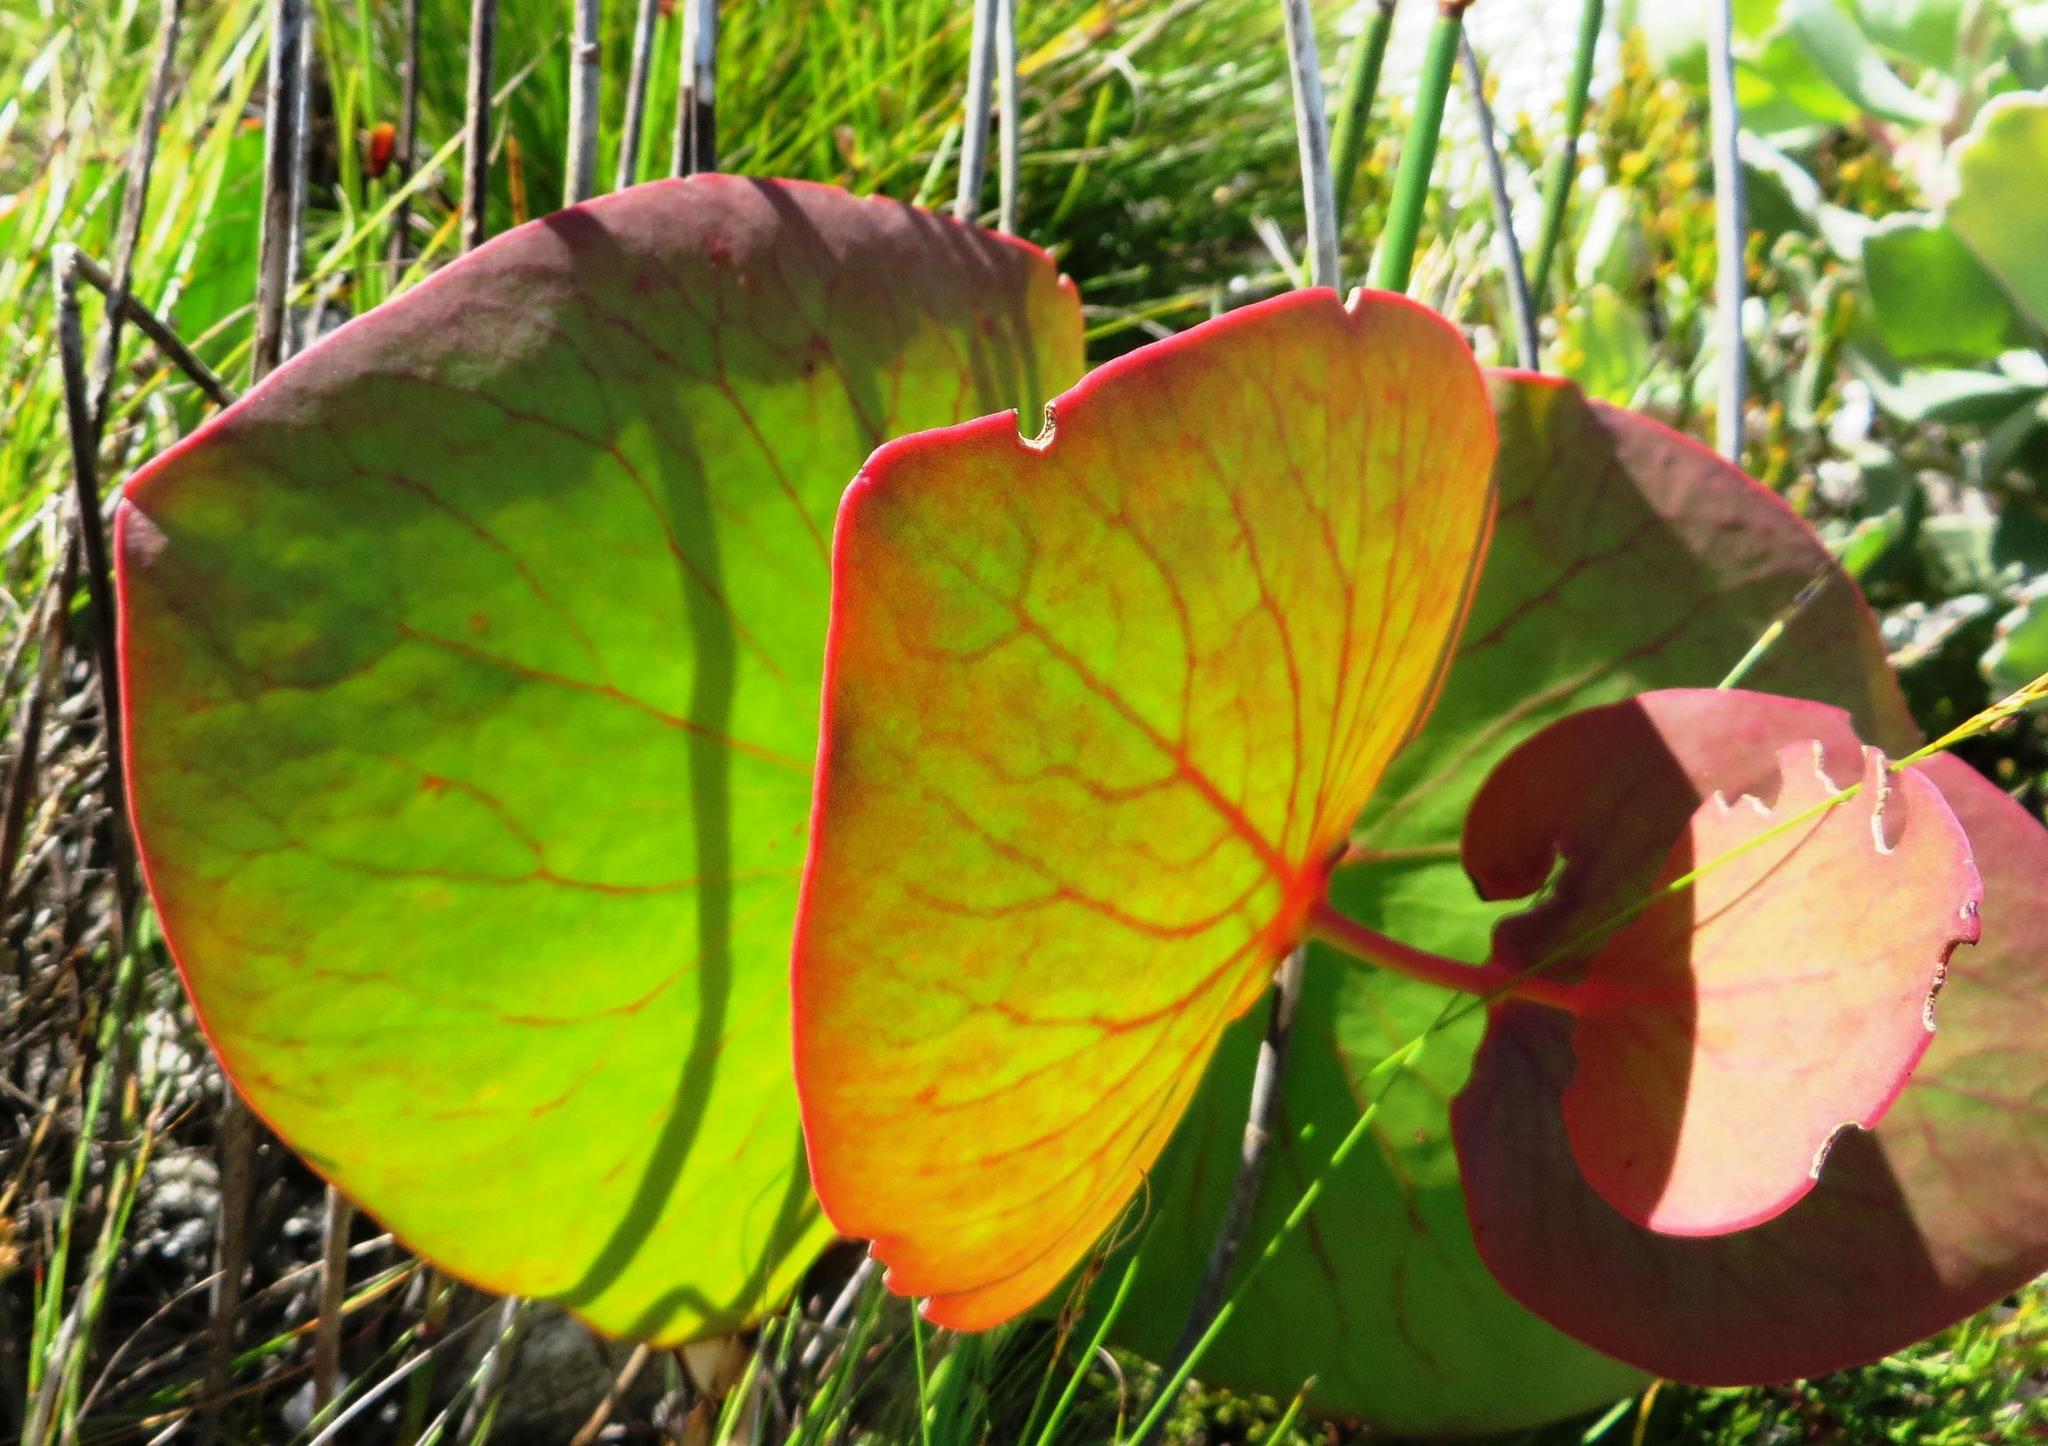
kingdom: Plantae
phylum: Tracheophyta
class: Magnoliopsida
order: Proteales
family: Proteaceae
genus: Protea
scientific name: Protea cordata
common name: Heart-leaf sugarbush
